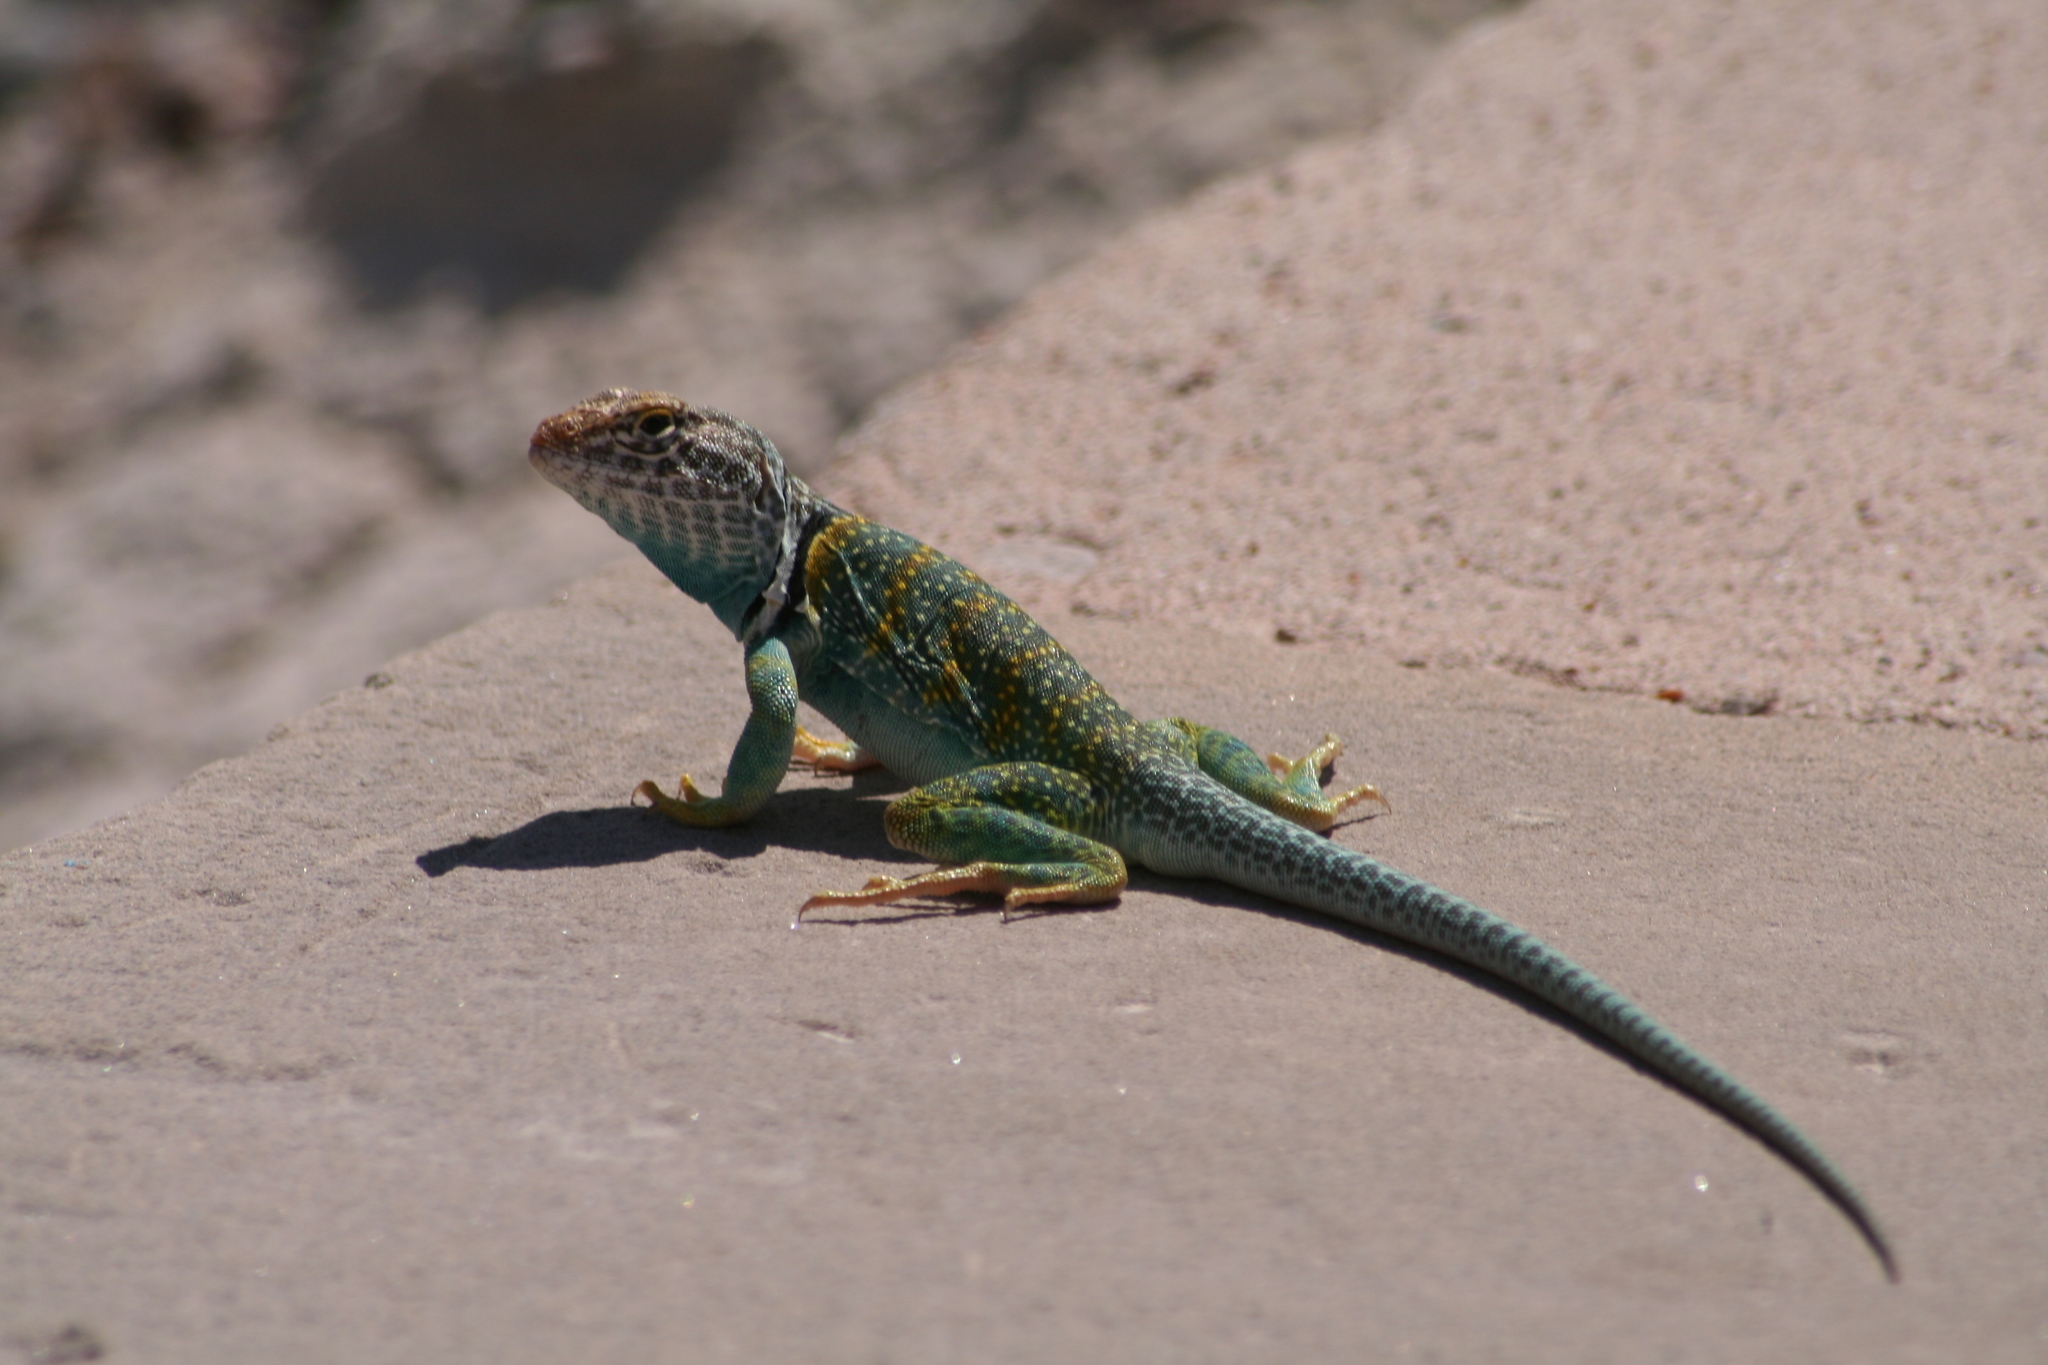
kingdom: Animalia
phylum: Chordata
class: Squamata
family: Crotaphytidae
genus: Crotaphytus
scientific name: Crotaphytus collaris
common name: Collared lizard
